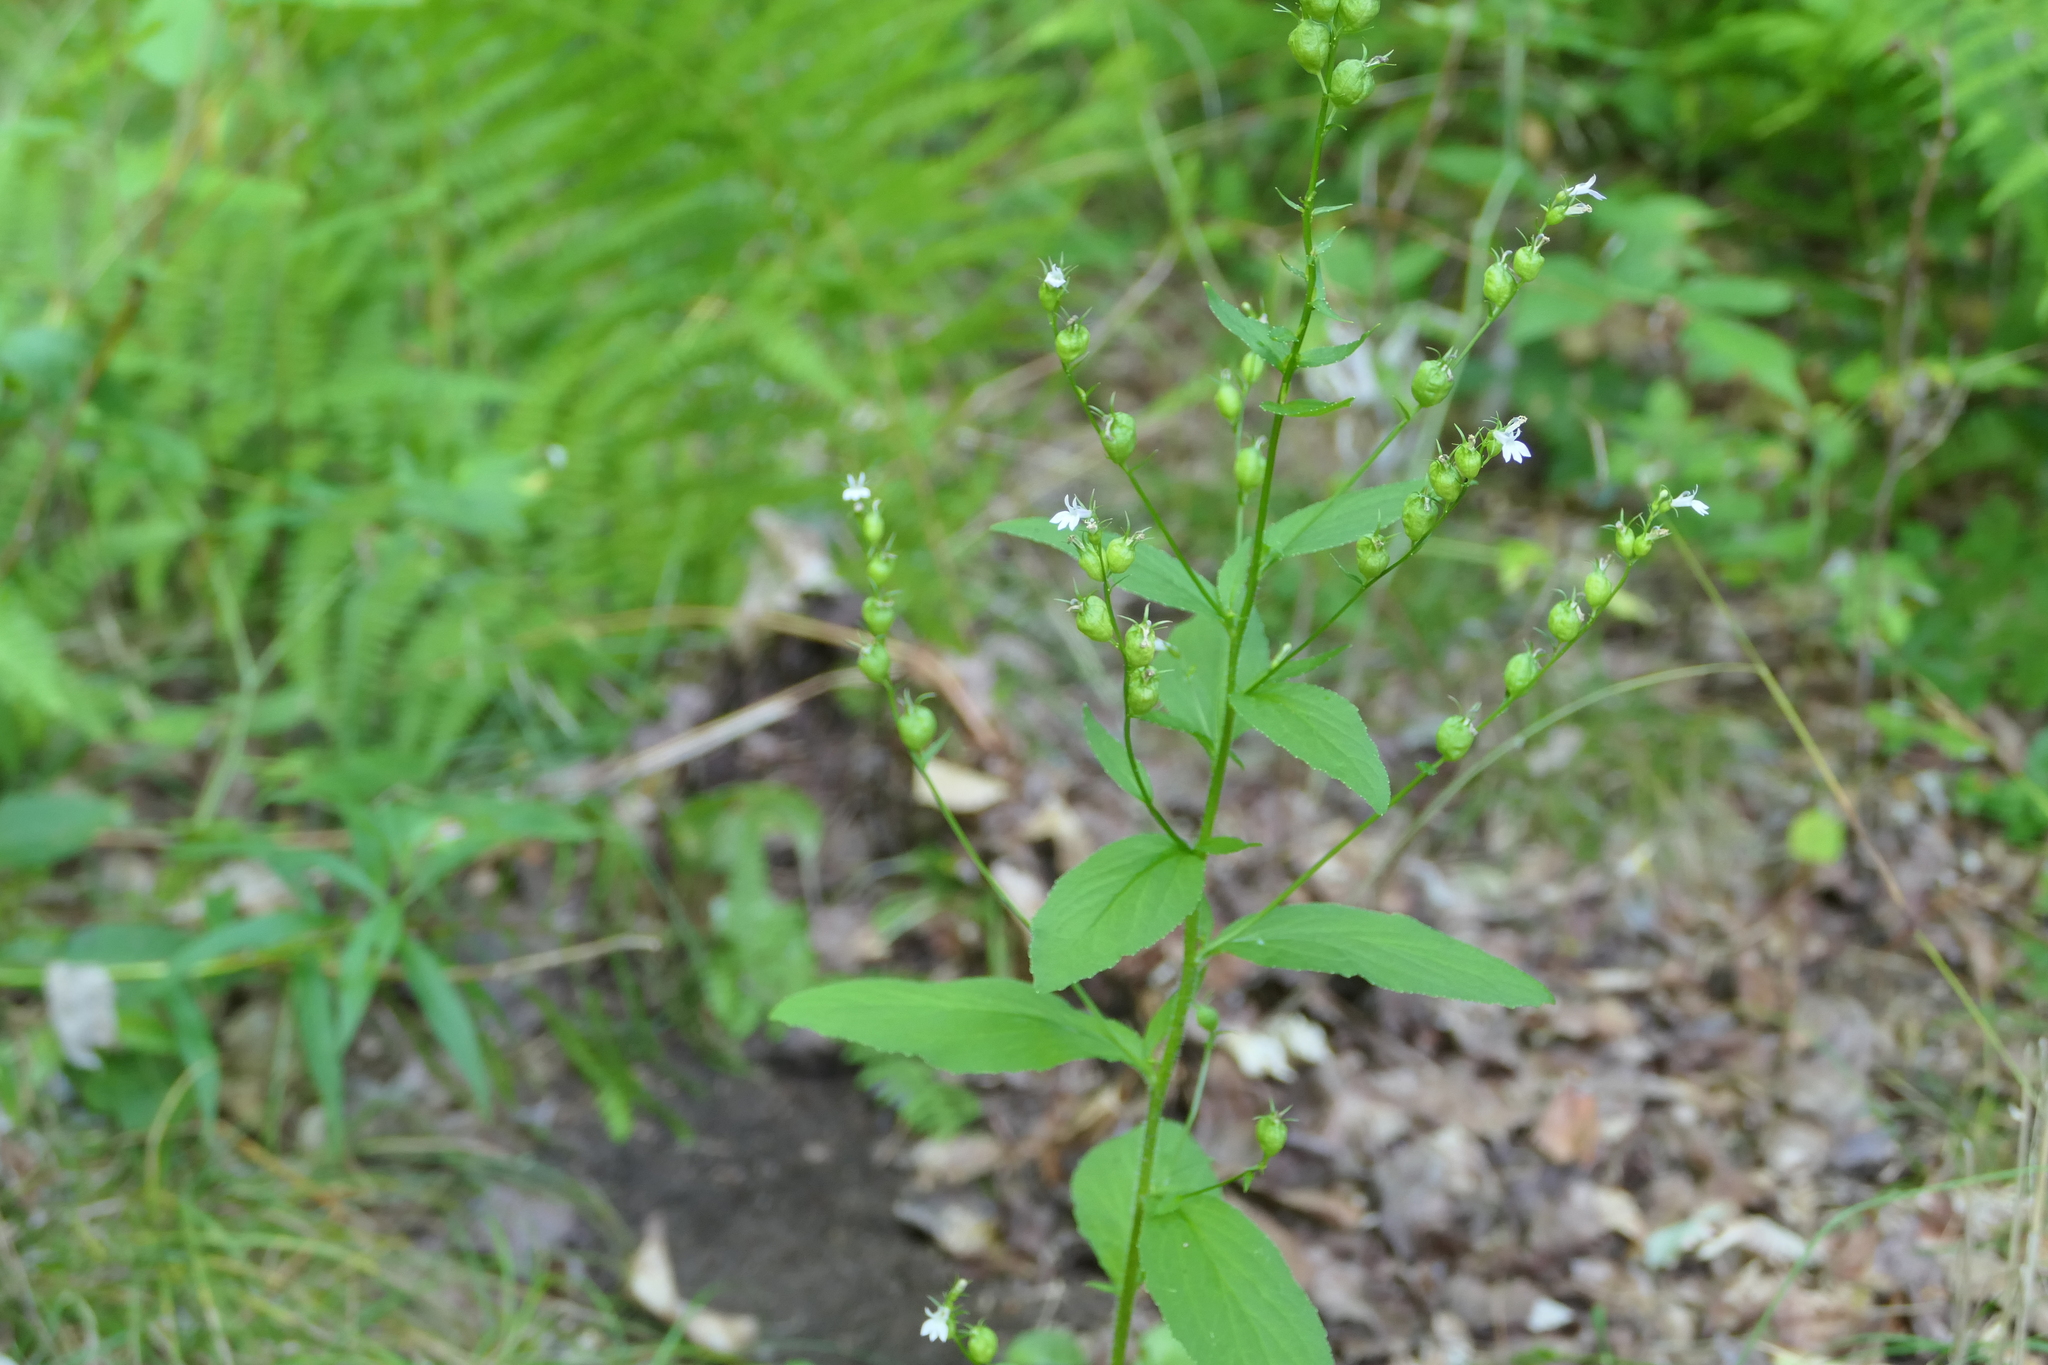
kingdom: Plantae
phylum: Tracheophyta
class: Magnoliopsida
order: Asterales
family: Campanulaceae
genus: Lobelia
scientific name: Lobelia inflata
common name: Indian tobacco
